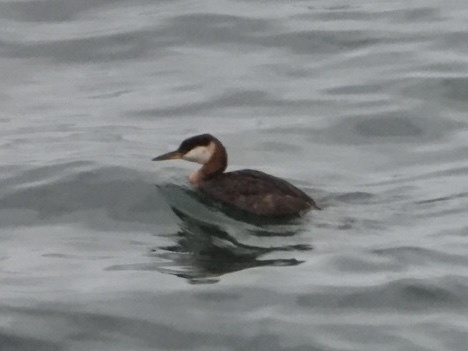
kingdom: Animalia
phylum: Chordata
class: Aves
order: Podicipediformes
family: Podicipedidae
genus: Podiceps
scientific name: Podiceps grisegena
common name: Red-necked grebe
